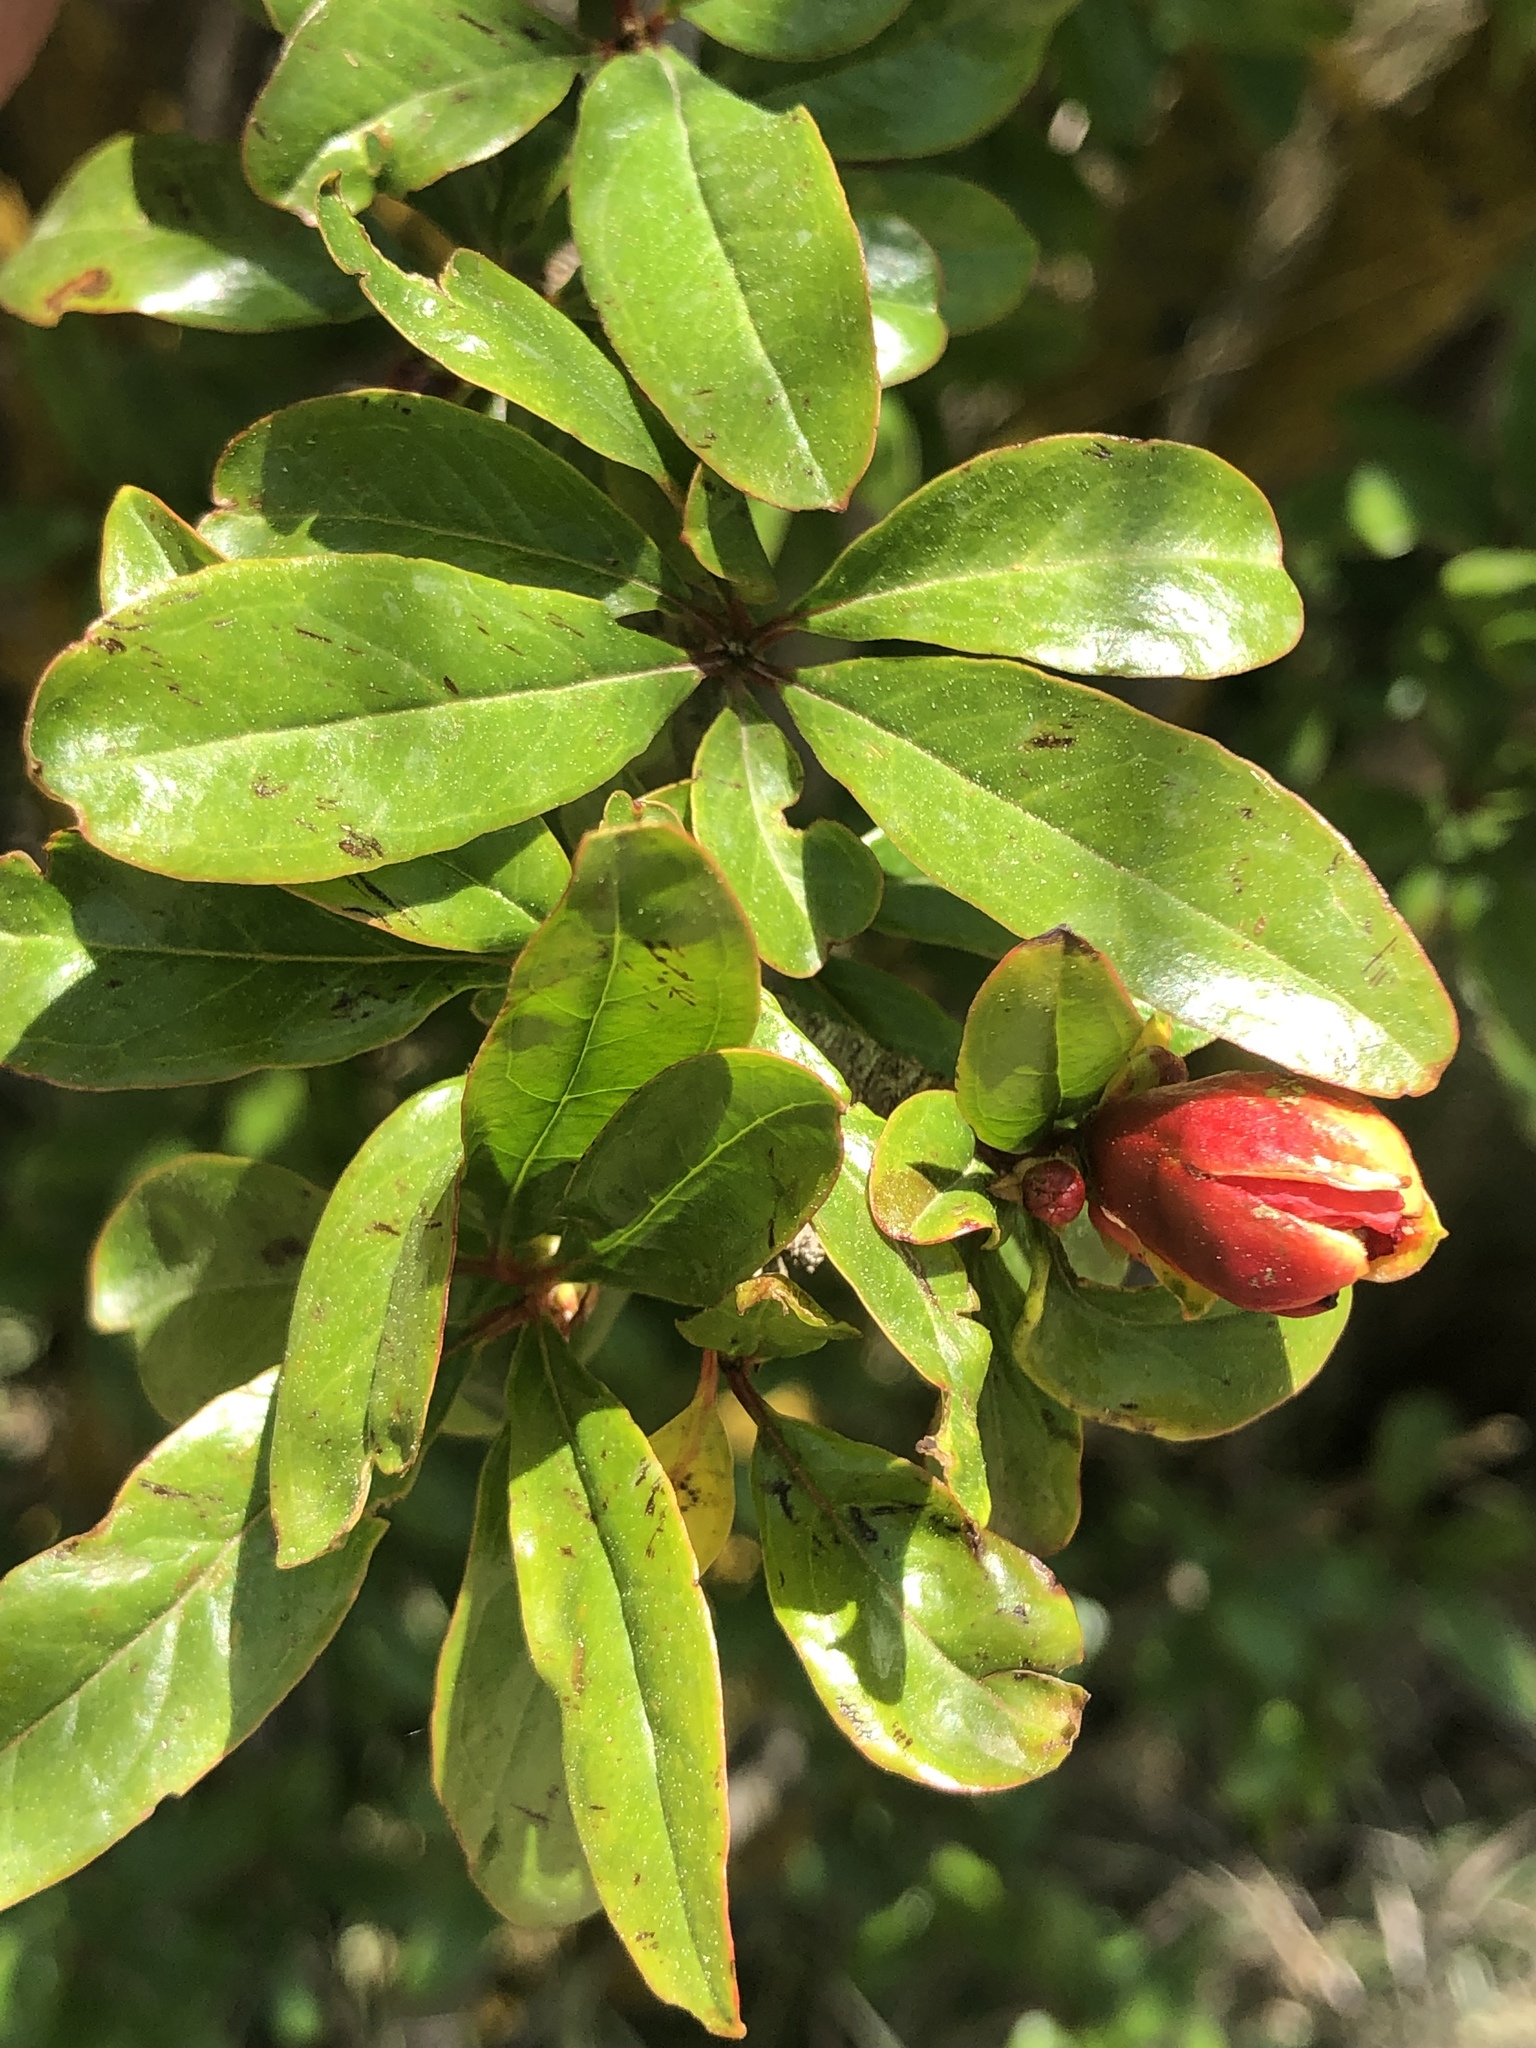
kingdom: Plantae
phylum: Tracheophyta
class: Magnoliopsida
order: Myrtales
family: Lythraceae
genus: Punica
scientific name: Punica granatum
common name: Pomegranate
